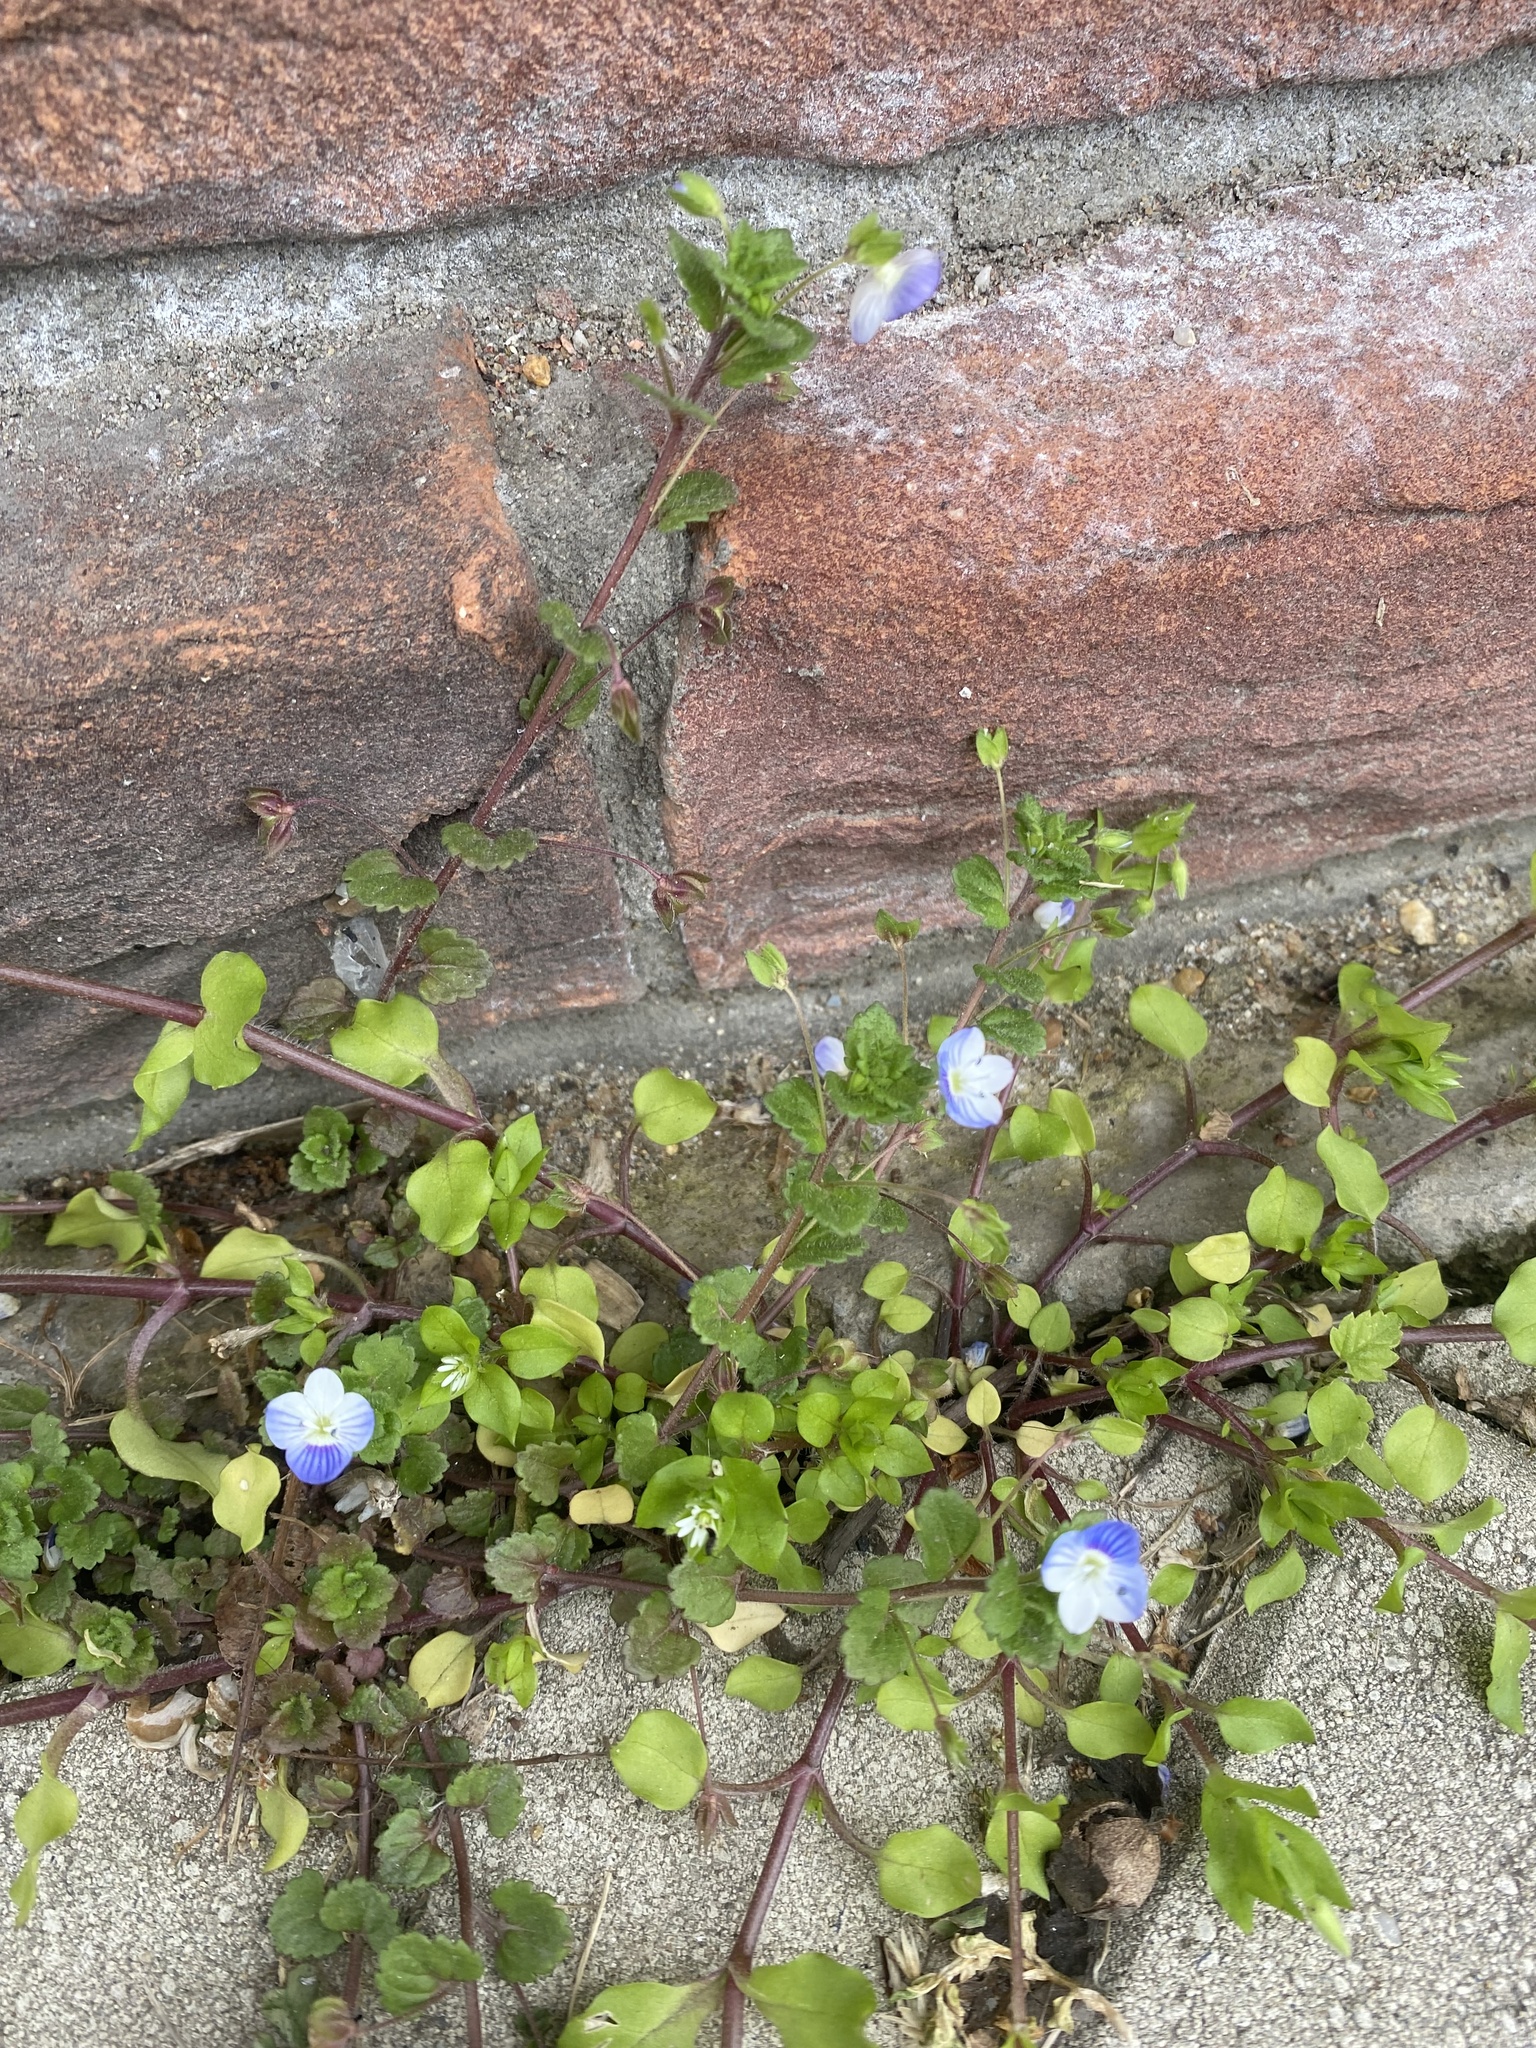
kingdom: Plantae
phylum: Tracheophyta
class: Magnoliopsida
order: Lamiales
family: Plantaginaceae
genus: Veronica
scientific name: Veronica persica
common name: Common field-speedwell
